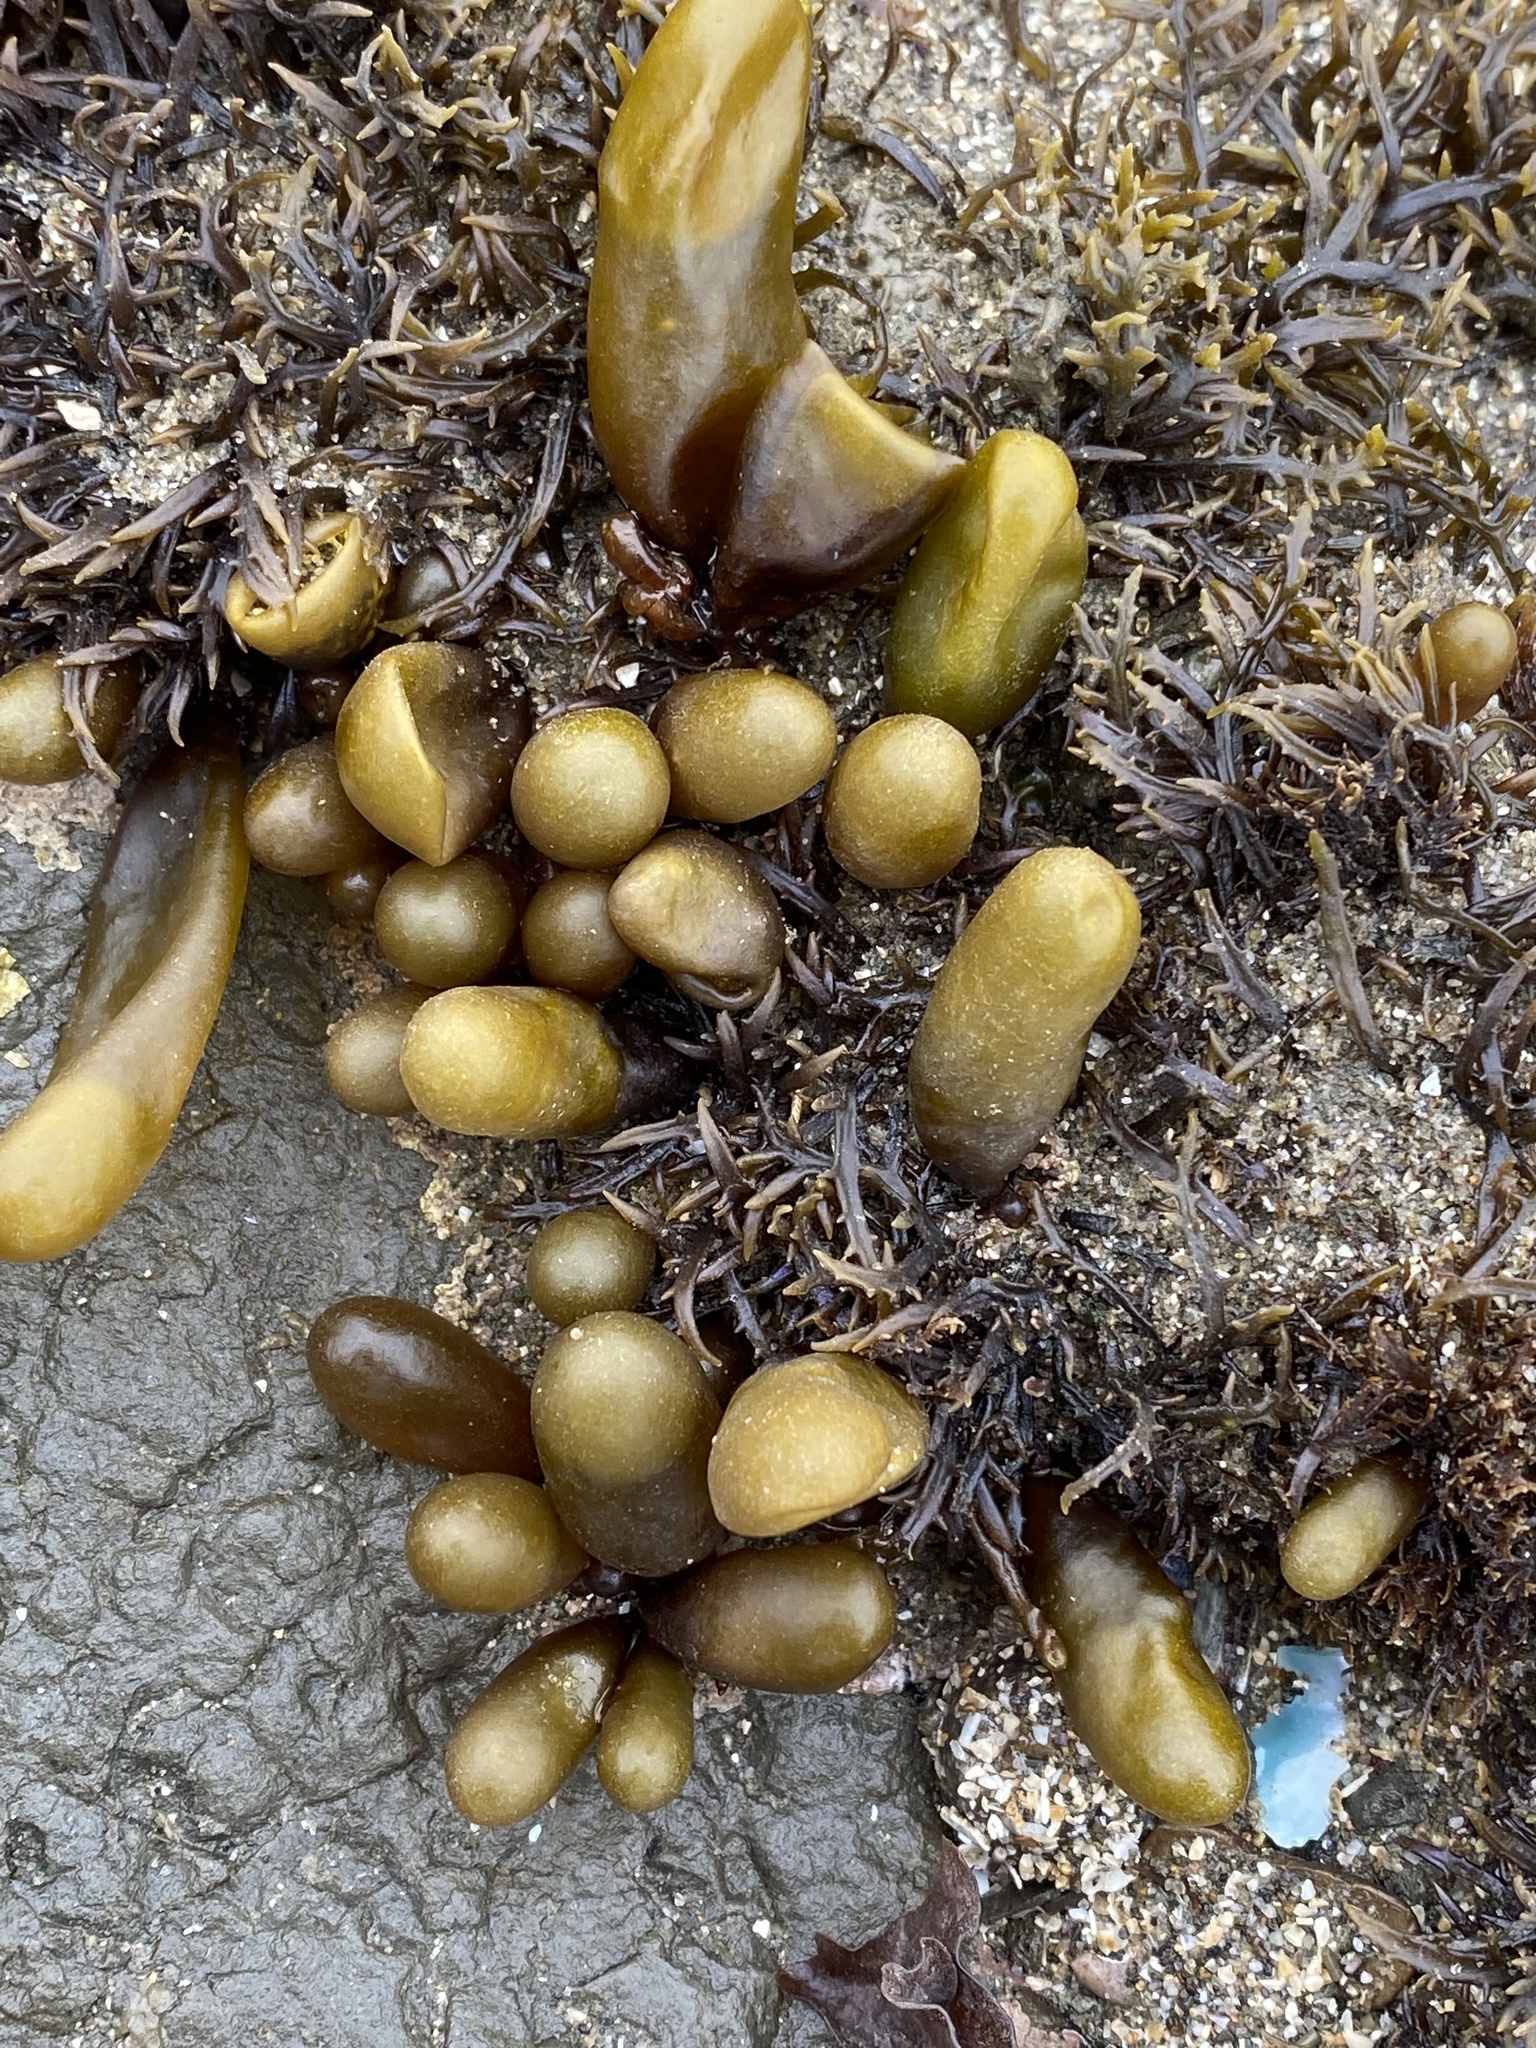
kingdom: Plantae
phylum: Rhodophyta
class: Florideophyceae
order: Palmariales
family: Palmariaceae
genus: Halosaccion
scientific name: Halosaccion glandiforme
